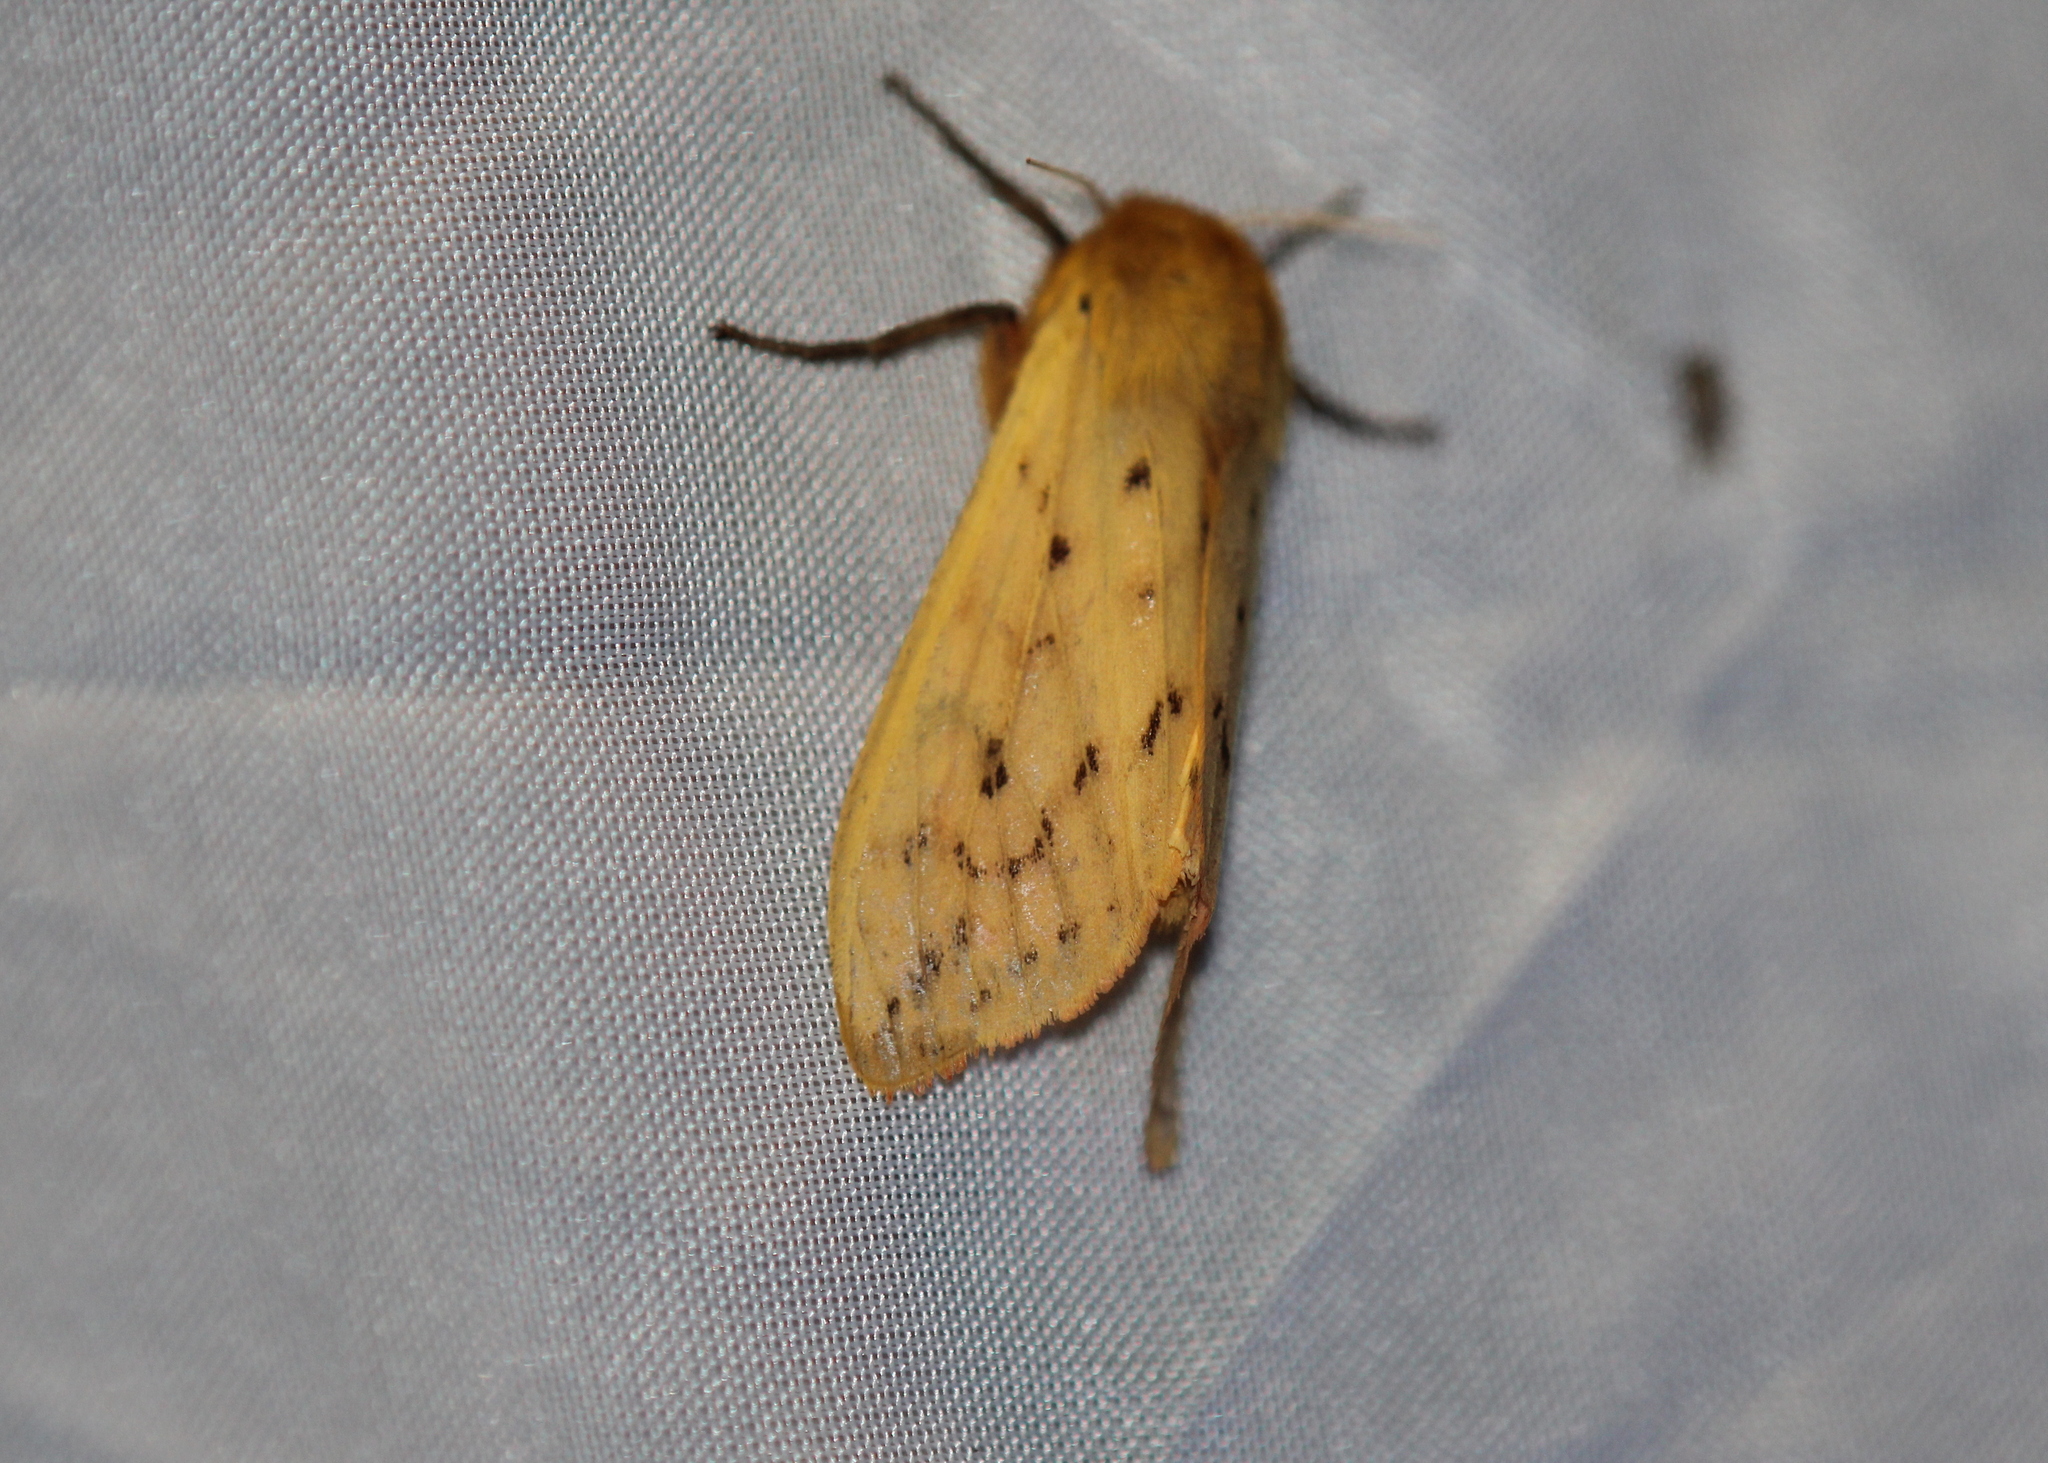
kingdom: Animalia
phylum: Arthropoda
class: Insecta
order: Lepidoptera
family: Erebidae
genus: Pyrrharctia
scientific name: Pyrrharctia isabella
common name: Isabella tiger moth
